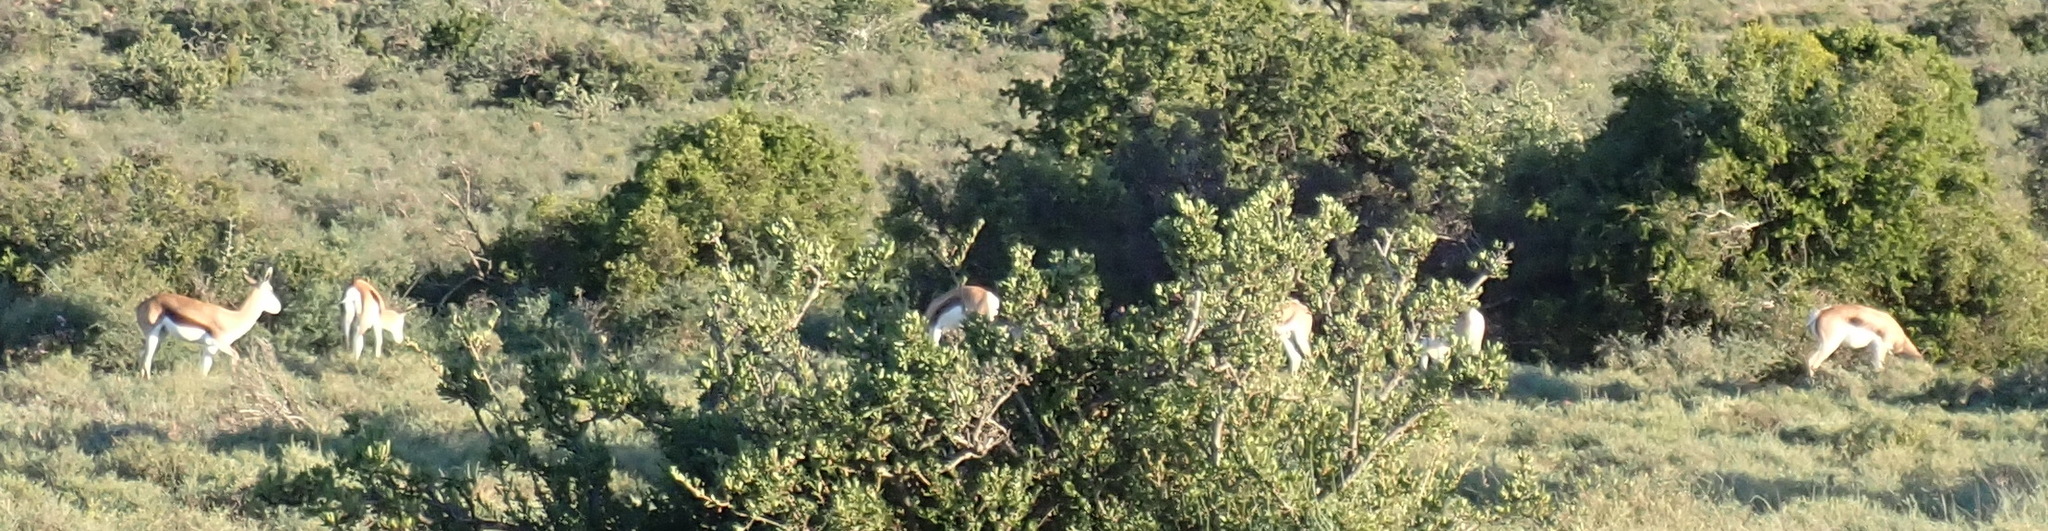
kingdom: Animalia
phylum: Chordata
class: Mammalia
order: Artiodactyla
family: Bovidae
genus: Antidorcas
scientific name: Antidorcas marsupialis
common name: Springbok
